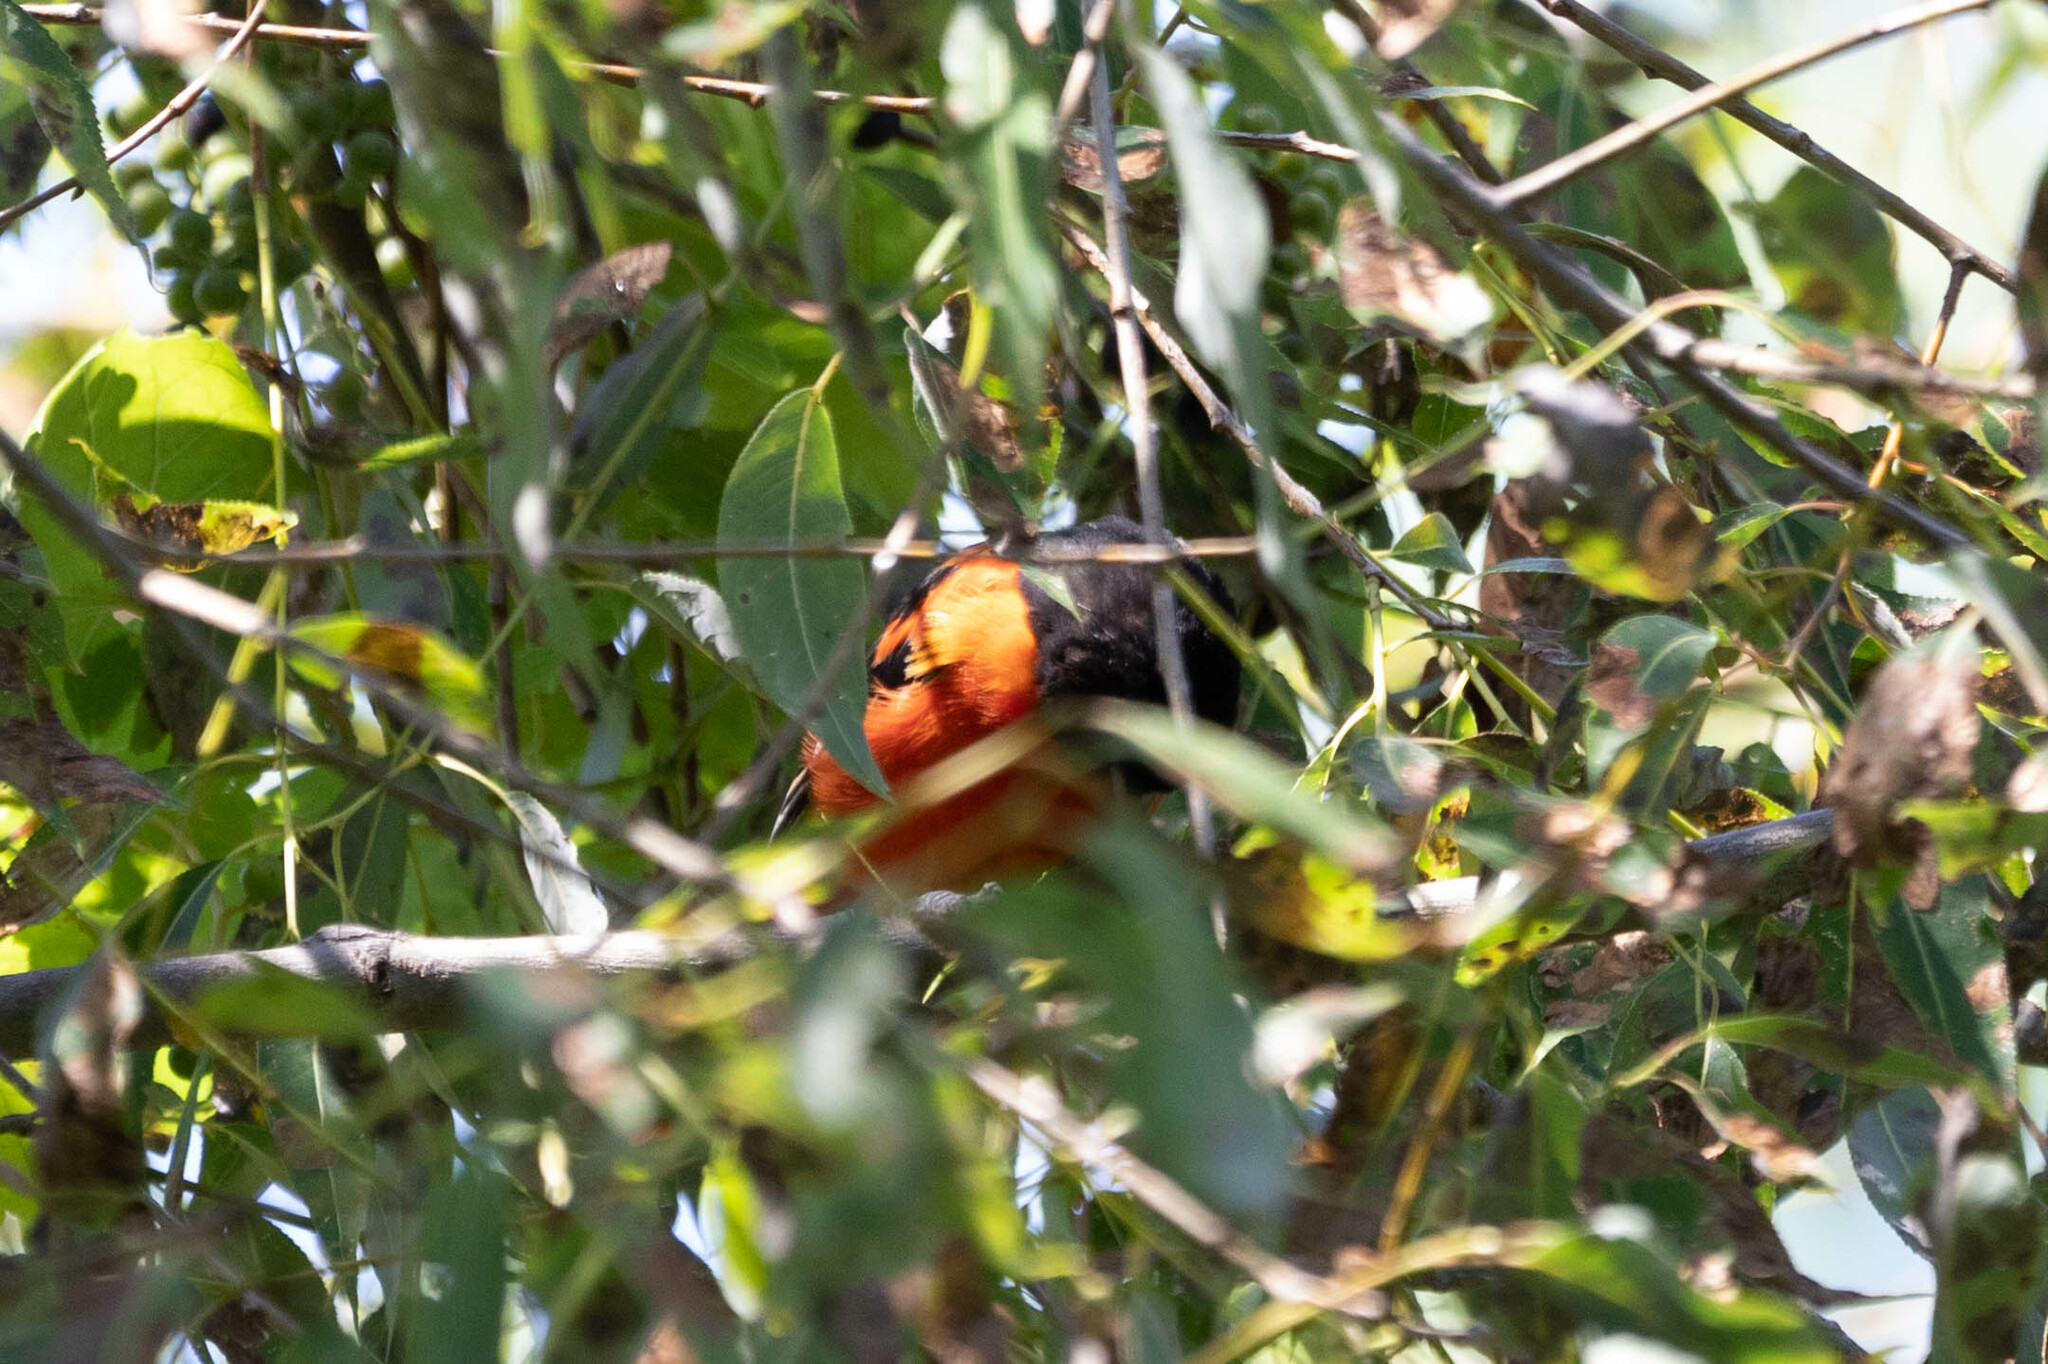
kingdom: Animalia
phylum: Chordata
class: Aves
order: Passeriformes
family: Icteridae
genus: Icterus
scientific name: Icterus galbula
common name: Baltimore oriole
